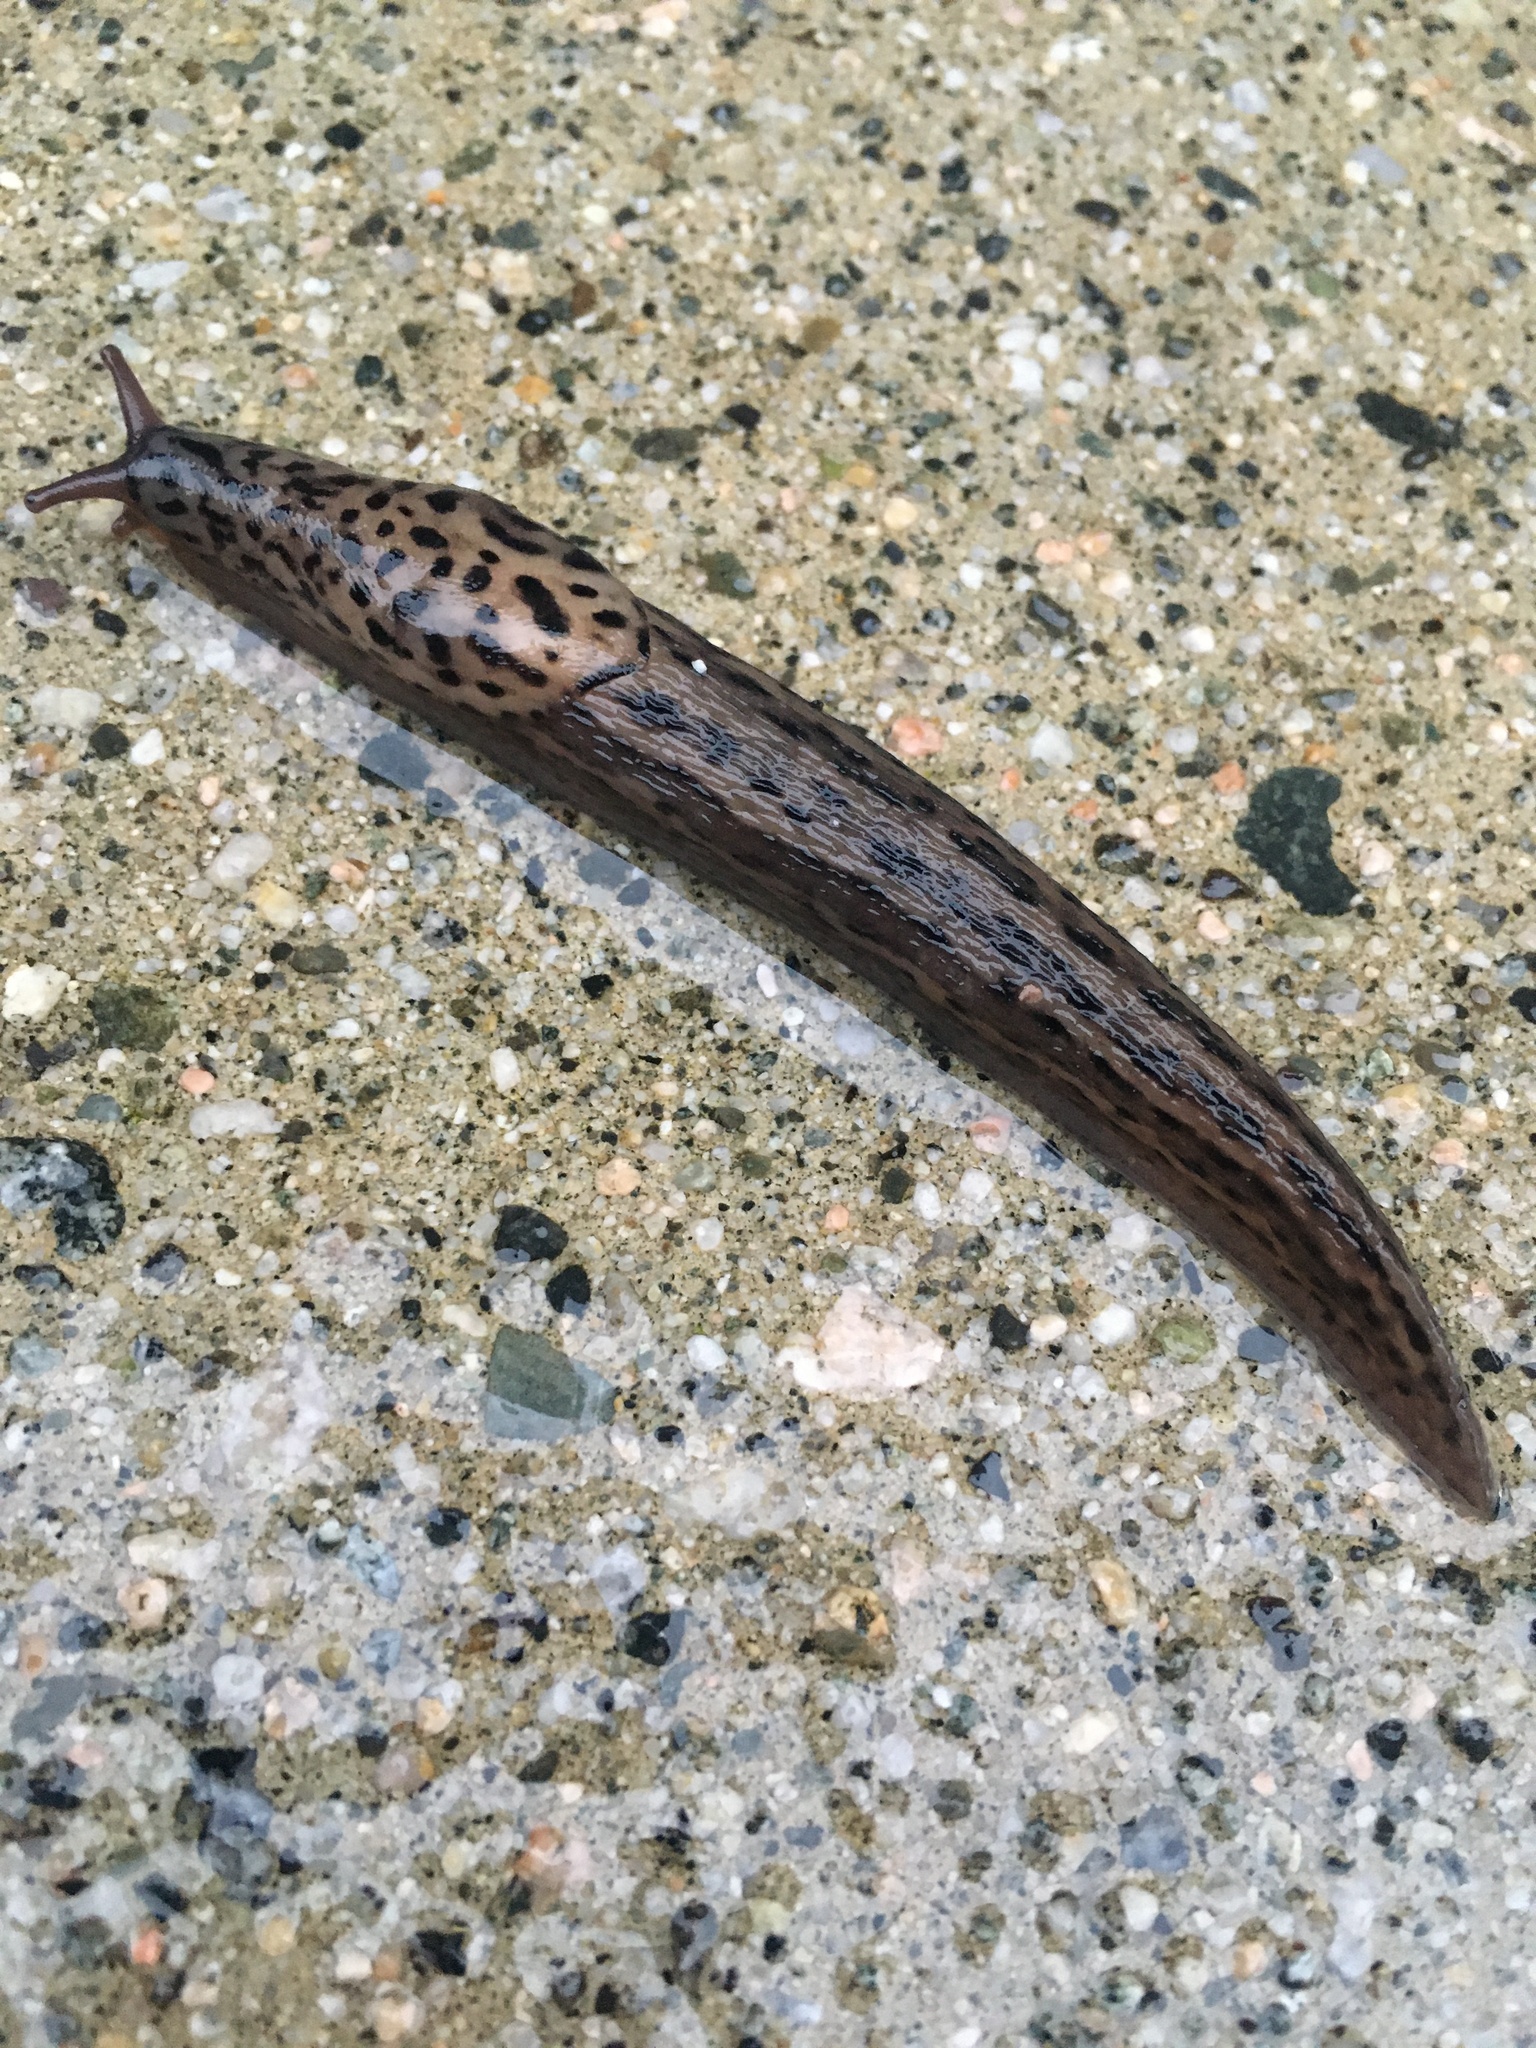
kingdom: Animalia
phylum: Mollusca
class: Gastropoda
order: Stylommatophora
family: Limacidae
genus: Limax
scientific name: Limax maximus
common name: Great grey slug
